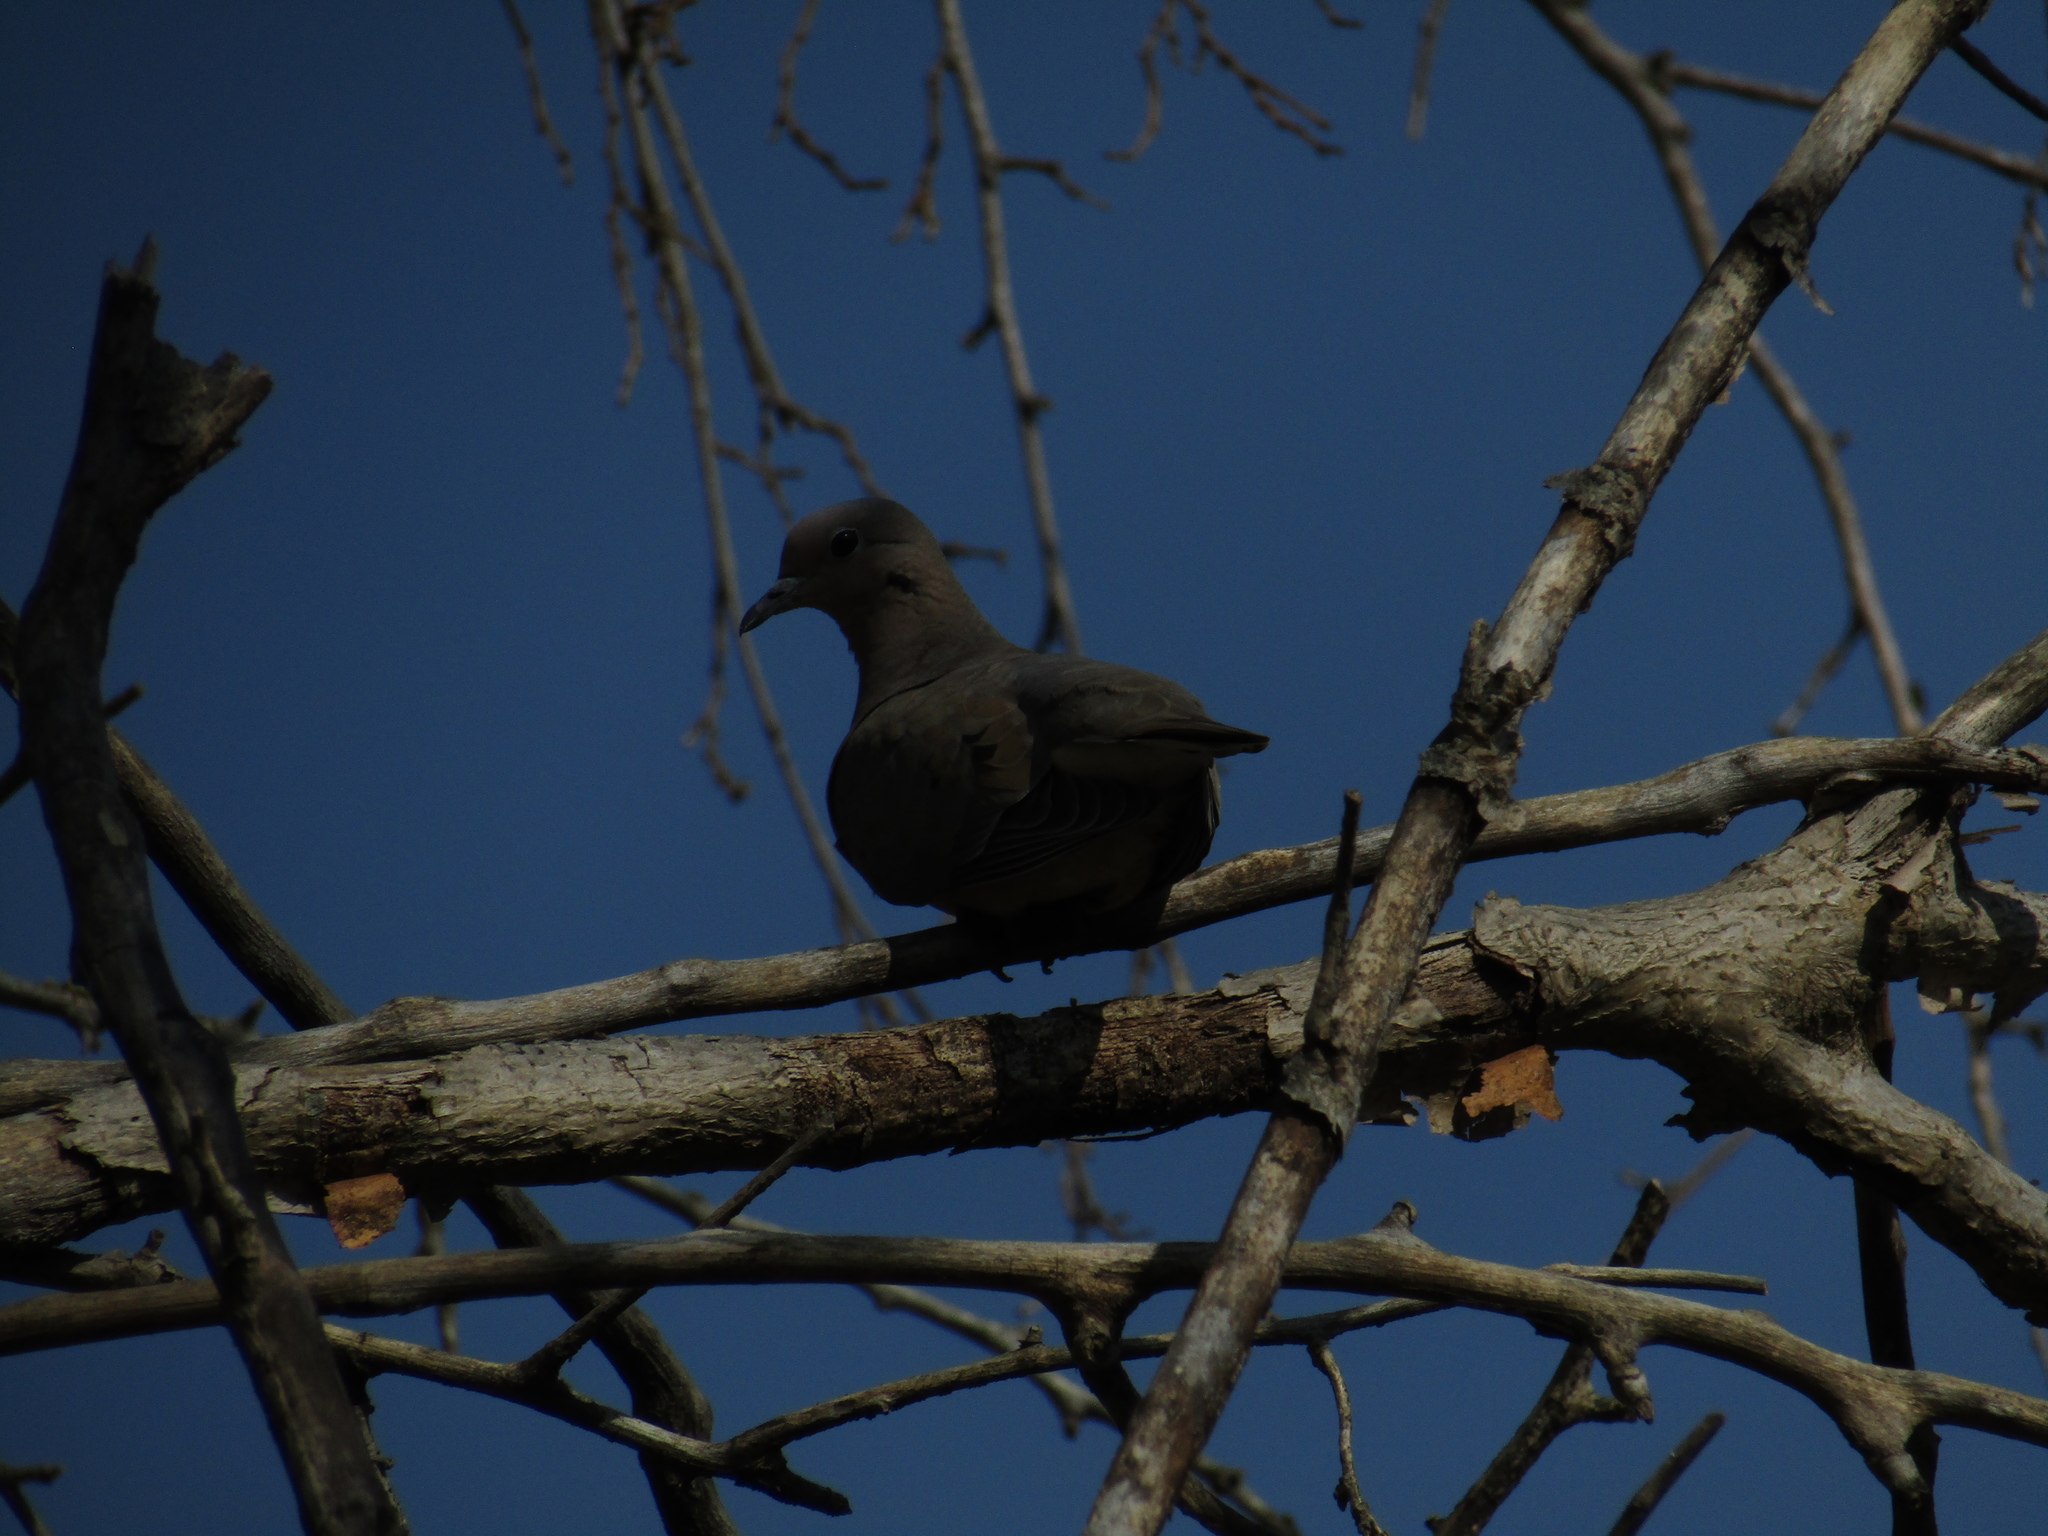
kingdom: Animalia
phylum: Chordata
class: Aves
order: Columbiformes
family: Columbidae
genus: Zenaida
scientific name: Zenaida auriculata
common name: Eared dove
